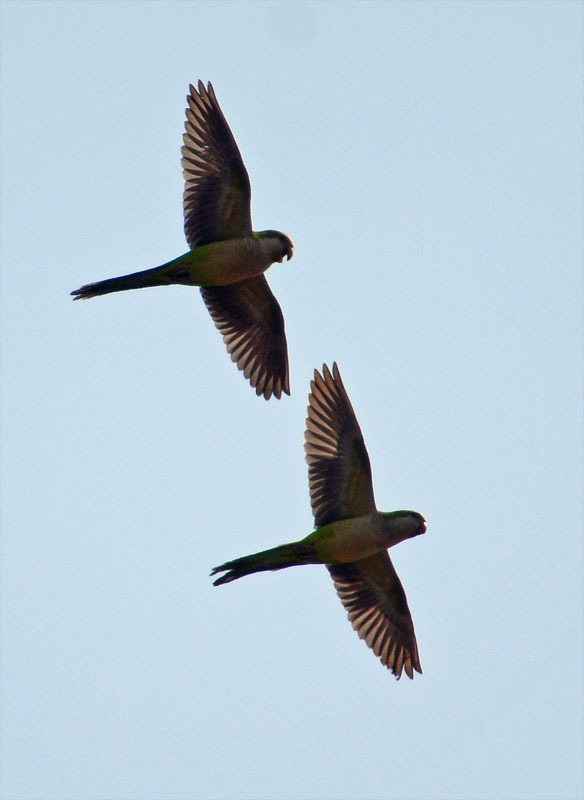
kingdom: Animalia
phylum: Chordata
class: Aves
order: Psittaciformes
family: Psittacidae
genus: Myiopsitta
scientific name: Myiopsitta monachus
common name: Monk parakeet
